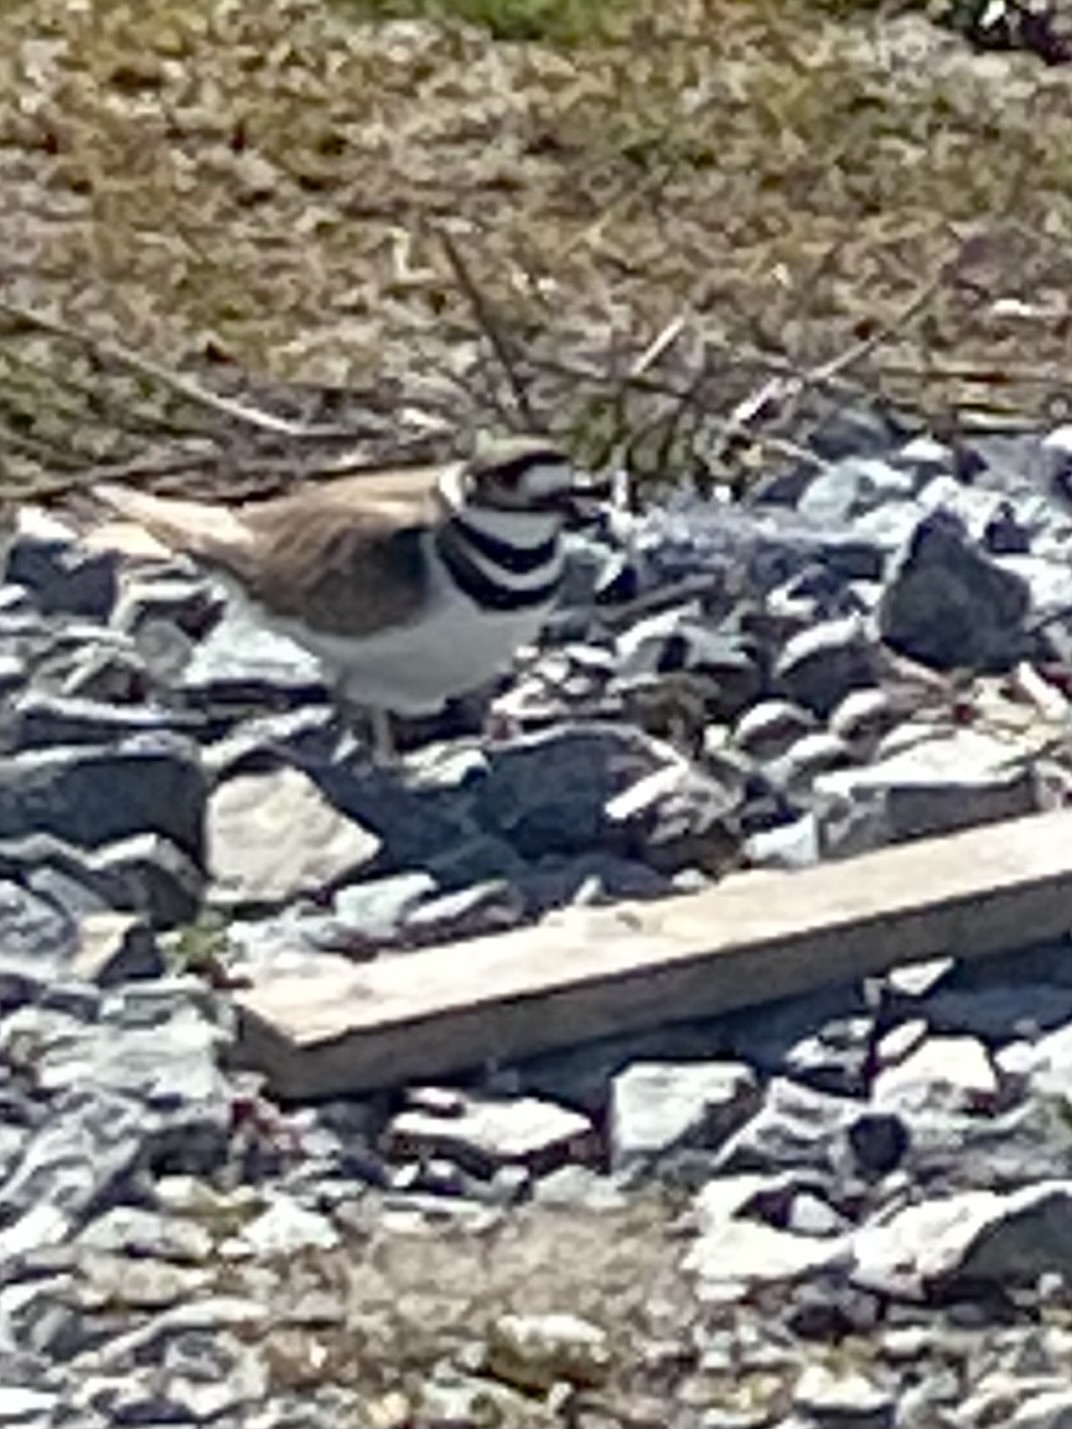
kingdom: Animalia
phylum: Chordata
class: Aves
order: Charadriiformes
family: Charadriidae
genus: Charadrius
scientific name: Charadrius vociferus
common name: Killdeer
